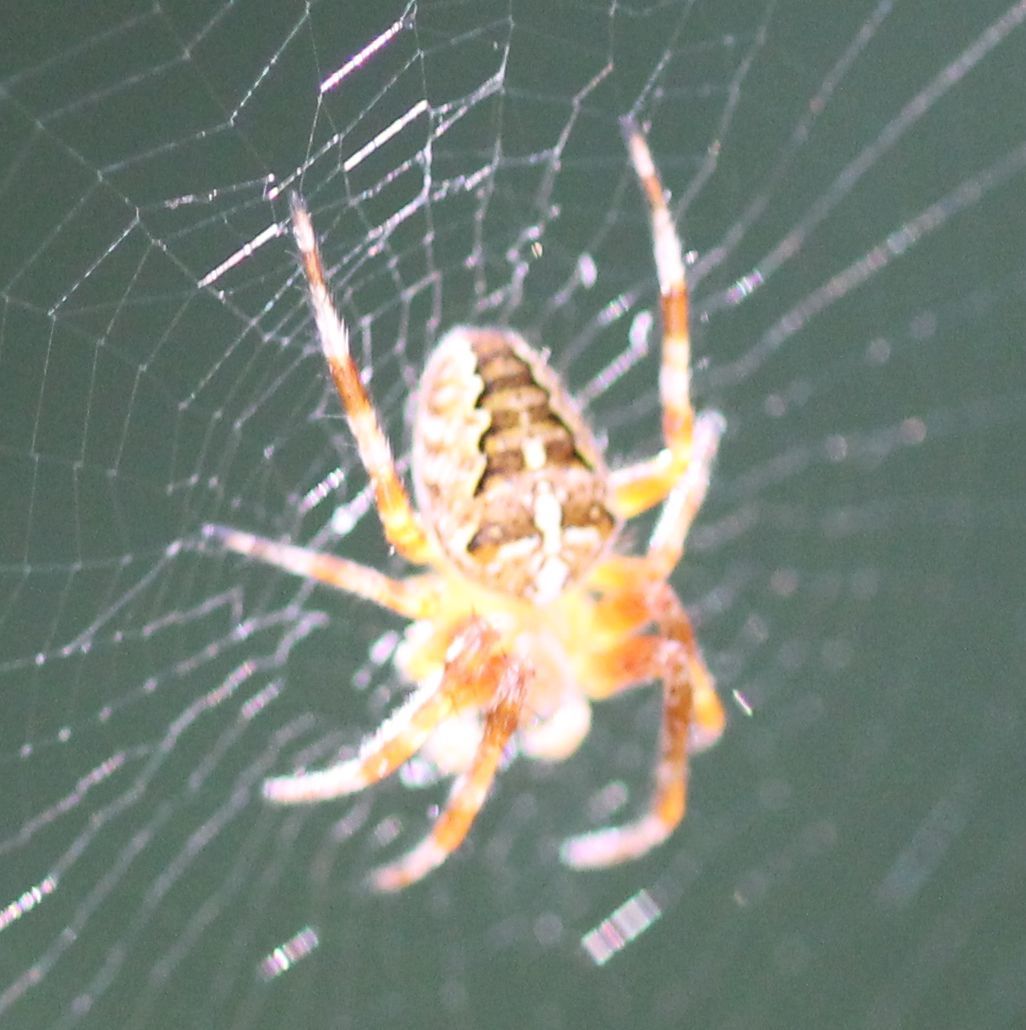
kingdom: Animalia
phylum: Arthropoda
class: Arachnida
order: Araneae
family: Araneidae
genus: Araneus
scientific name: Araneus diadematus
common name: Cross orbweaver
